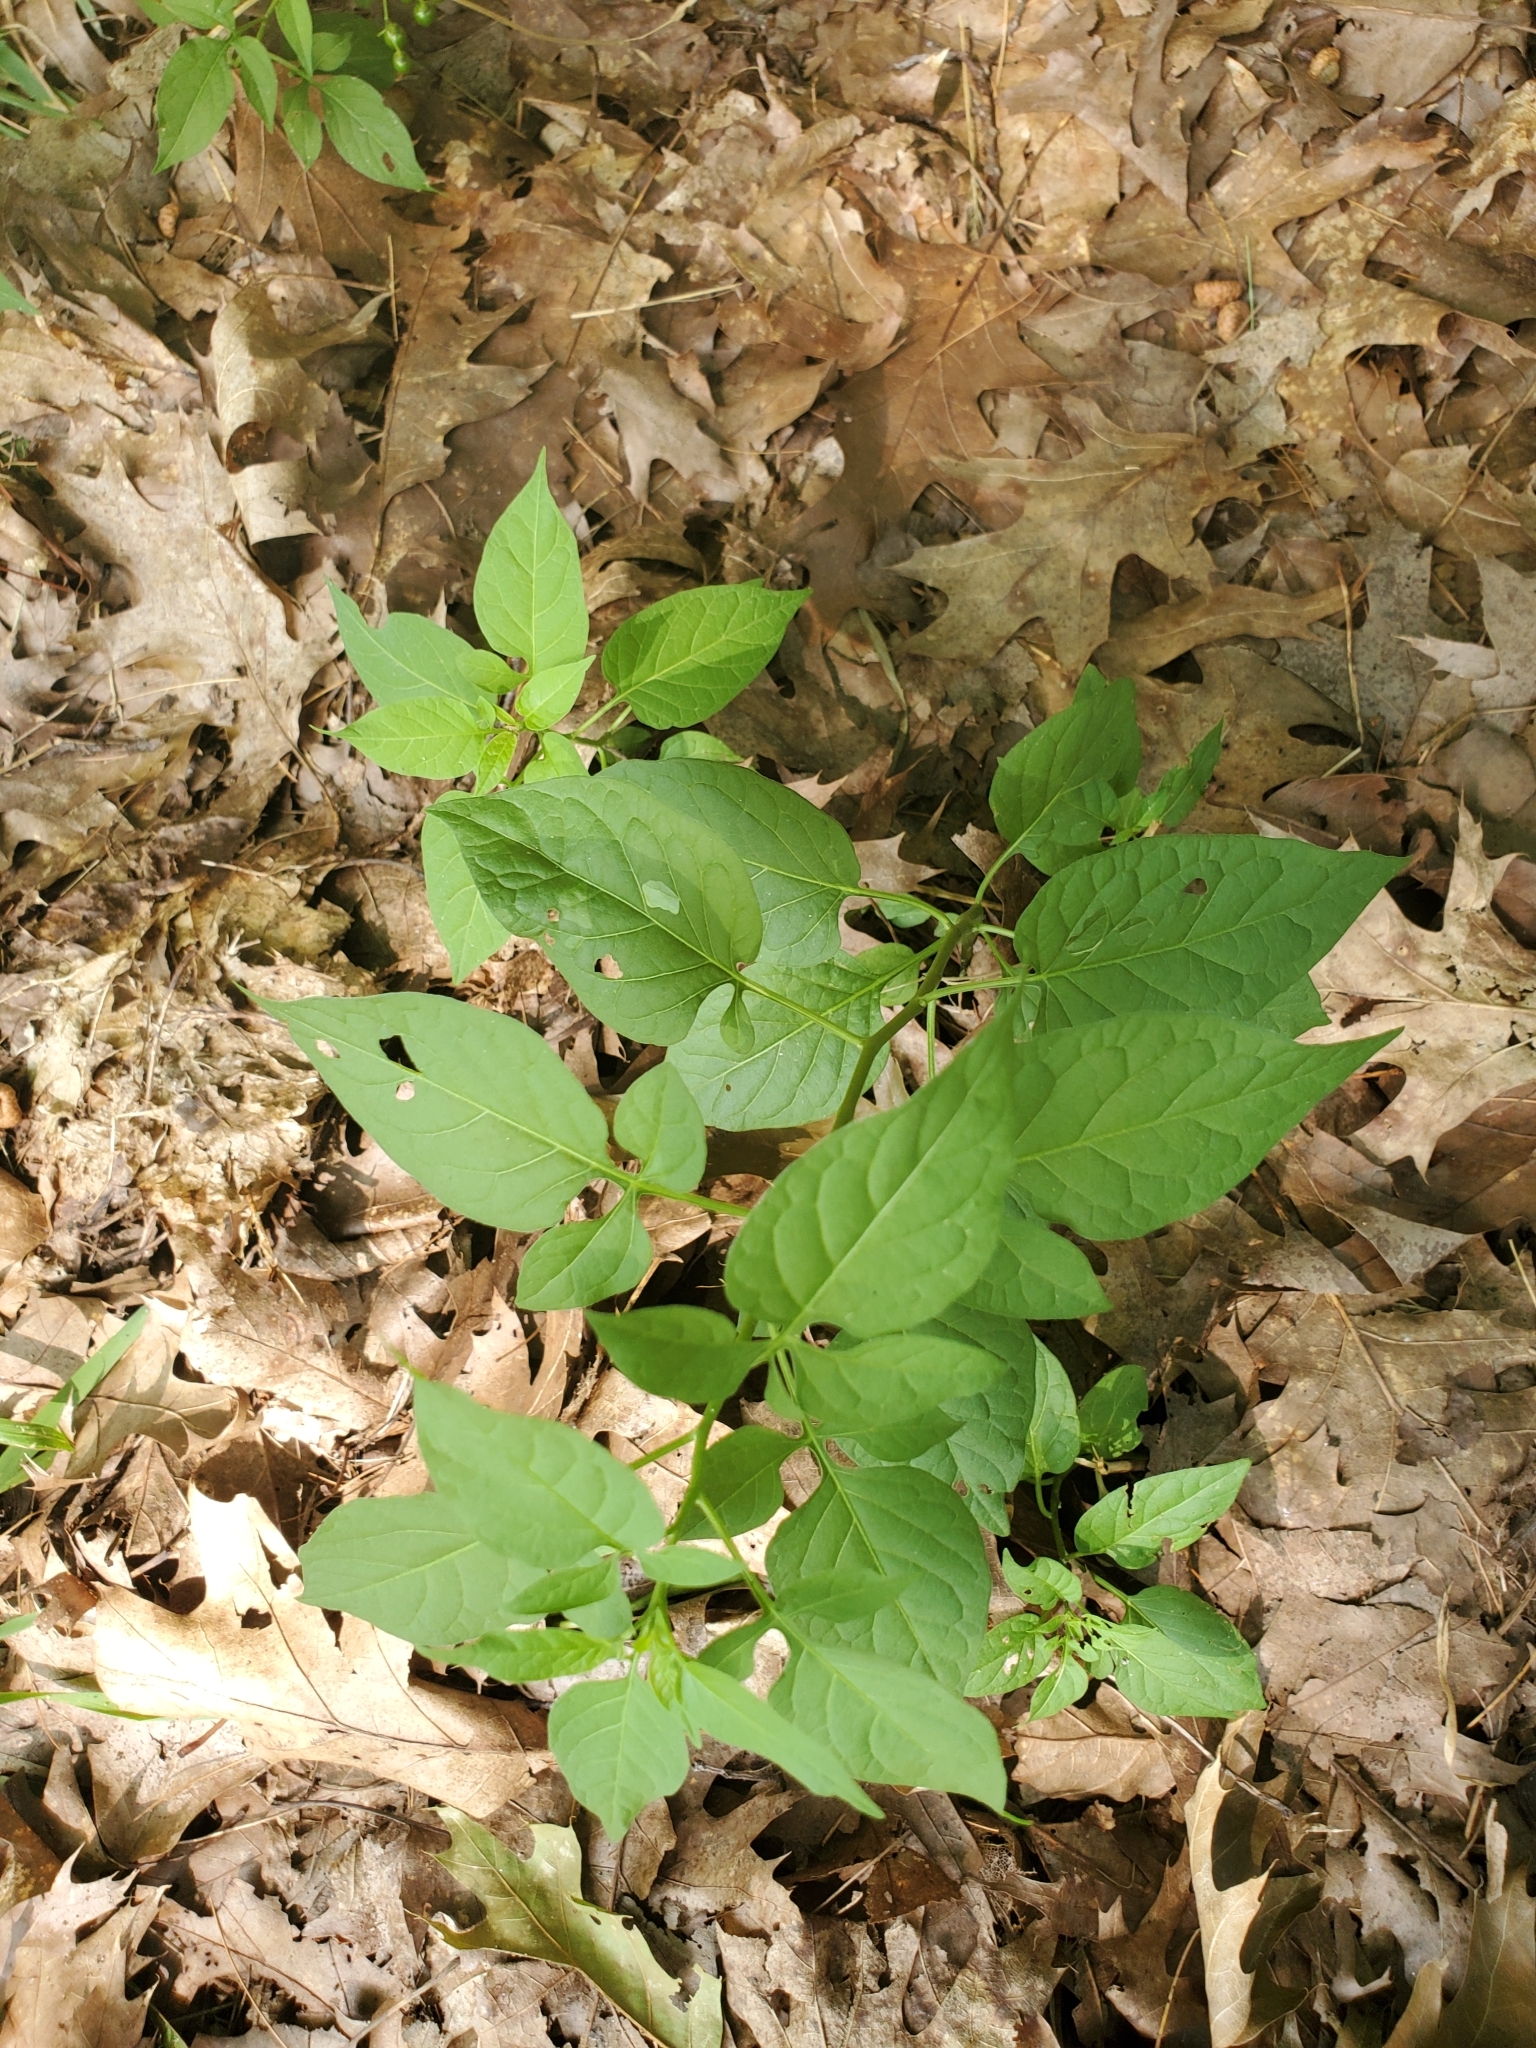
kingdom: Plantae
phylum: Tracheophyta
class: Magnoliopsida
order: Solanales
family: Solanaceae
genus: Solanum
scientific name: Solanum dulcamara
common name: Climbing nightshade
